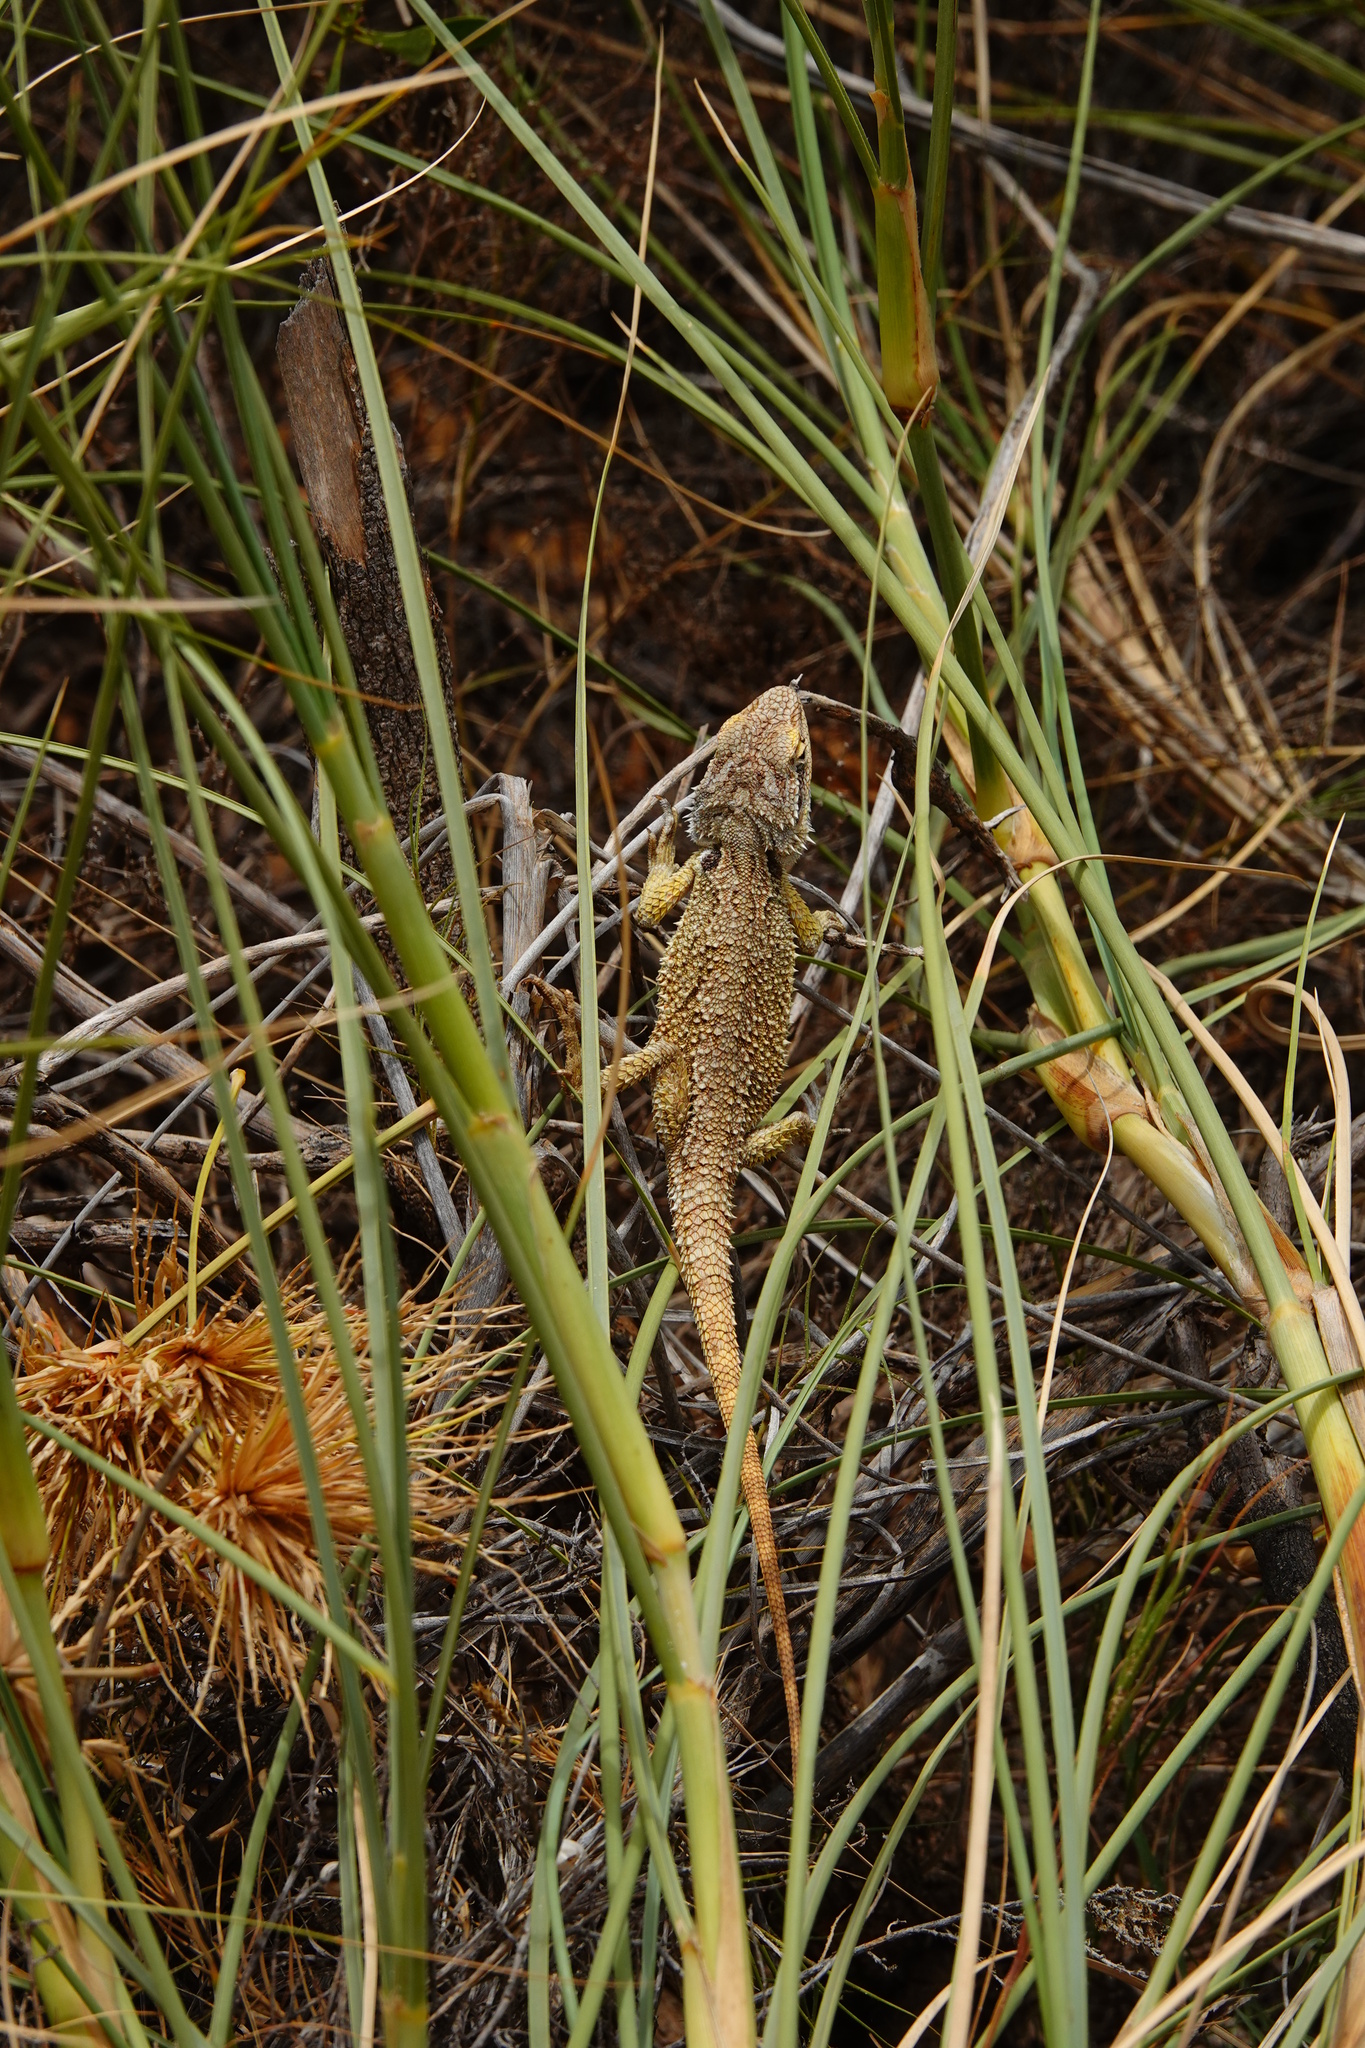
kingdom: Animalia
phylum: Chordata
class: Squamata
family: Agamidae
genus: Pogona
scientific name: Pogona minor
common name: Dwarf bearded dragon
